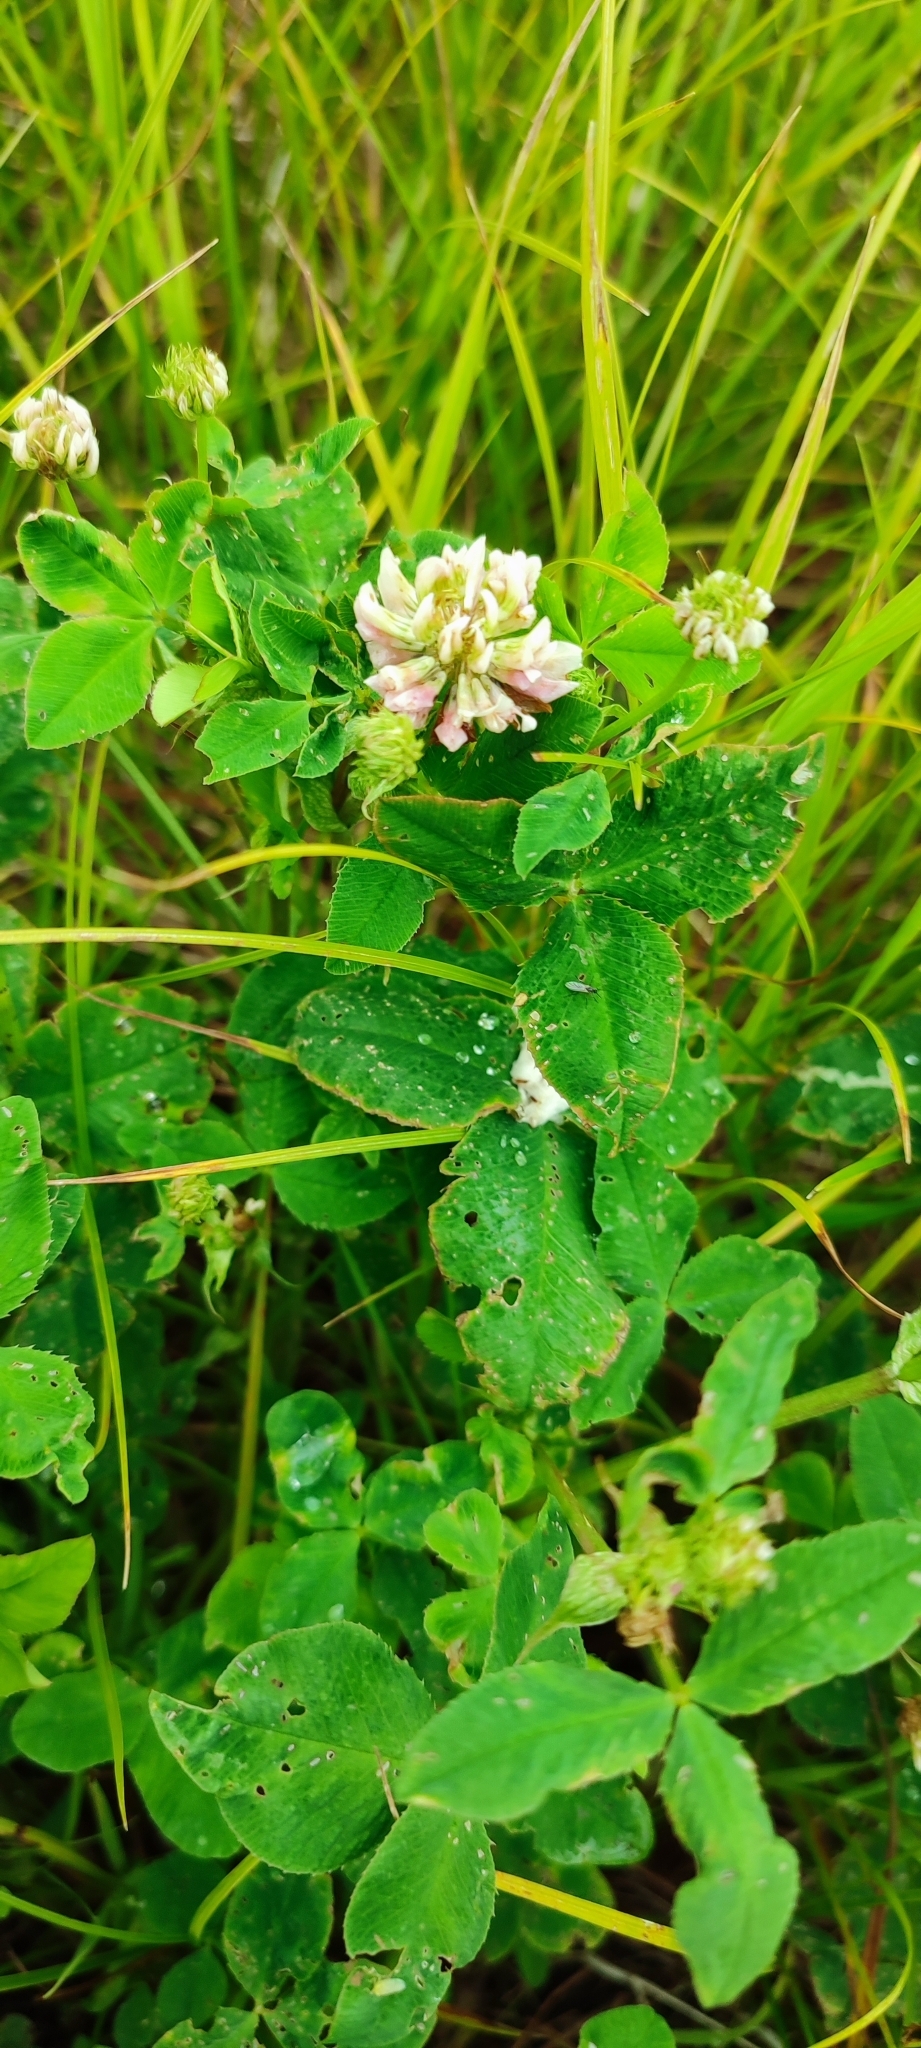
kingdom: Plantae
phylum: Tracheophyta
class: Magnoliopsida
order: Fabales
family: Fabaceae
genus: Trifolium
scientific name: Trifolium hybridum
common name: Alsike clover
